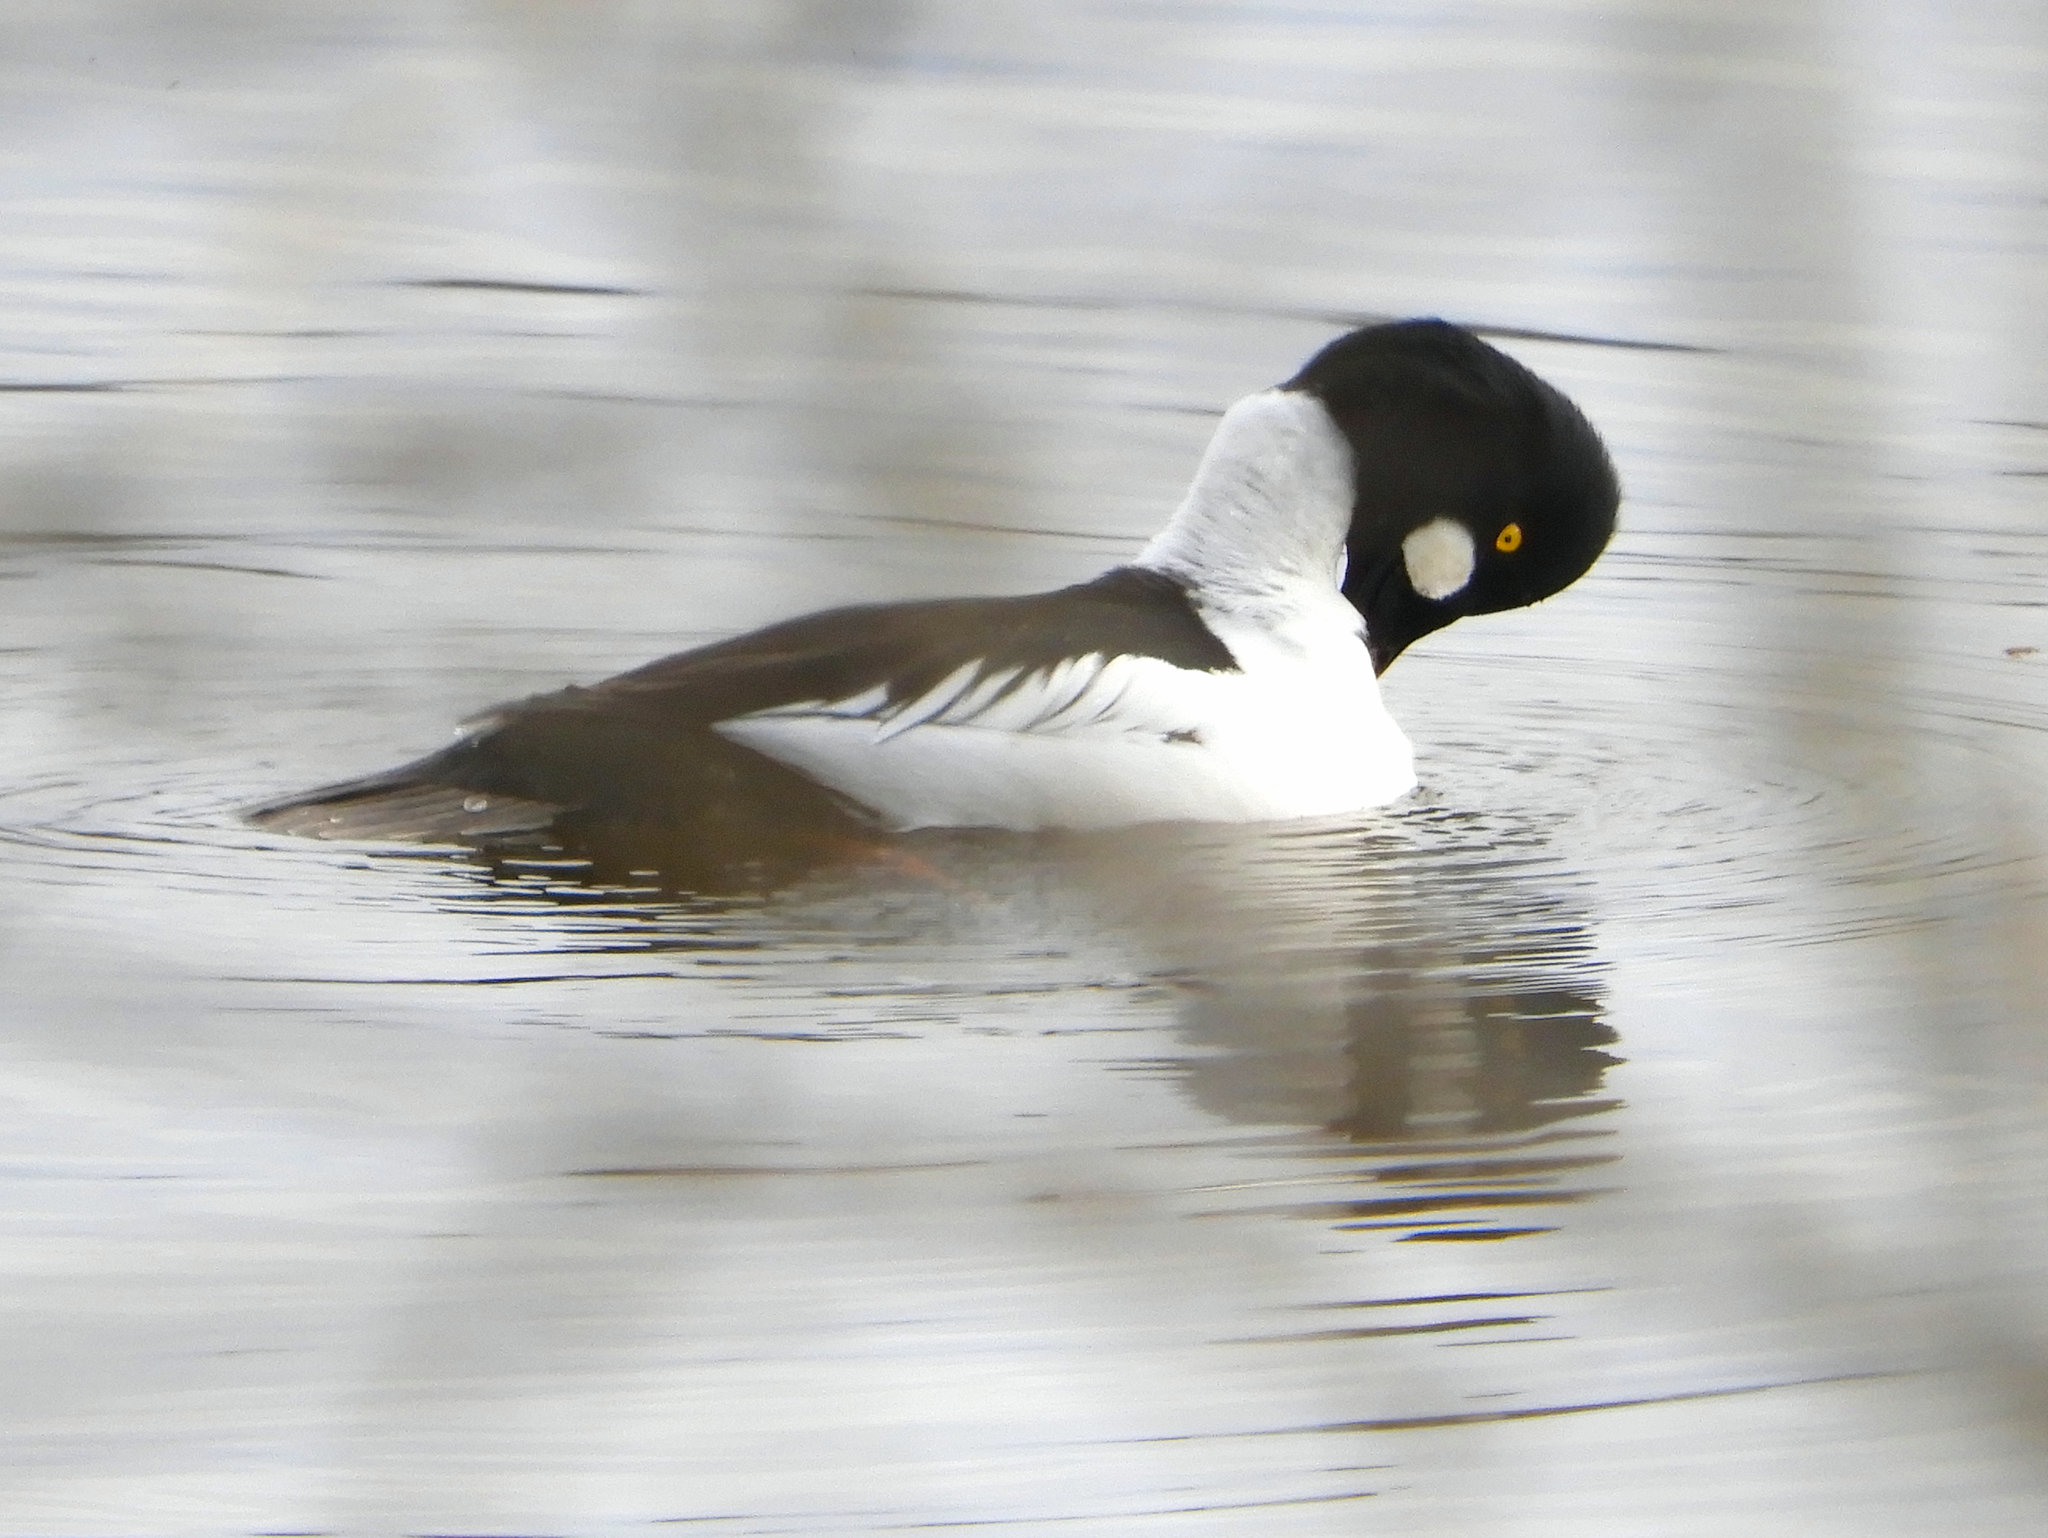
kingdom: Animalia
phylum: Chordata
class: Aves
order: Anseriformes
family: Anatidae
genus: Bucephala
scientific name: Bucephala clangula
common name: Common goldeneye
